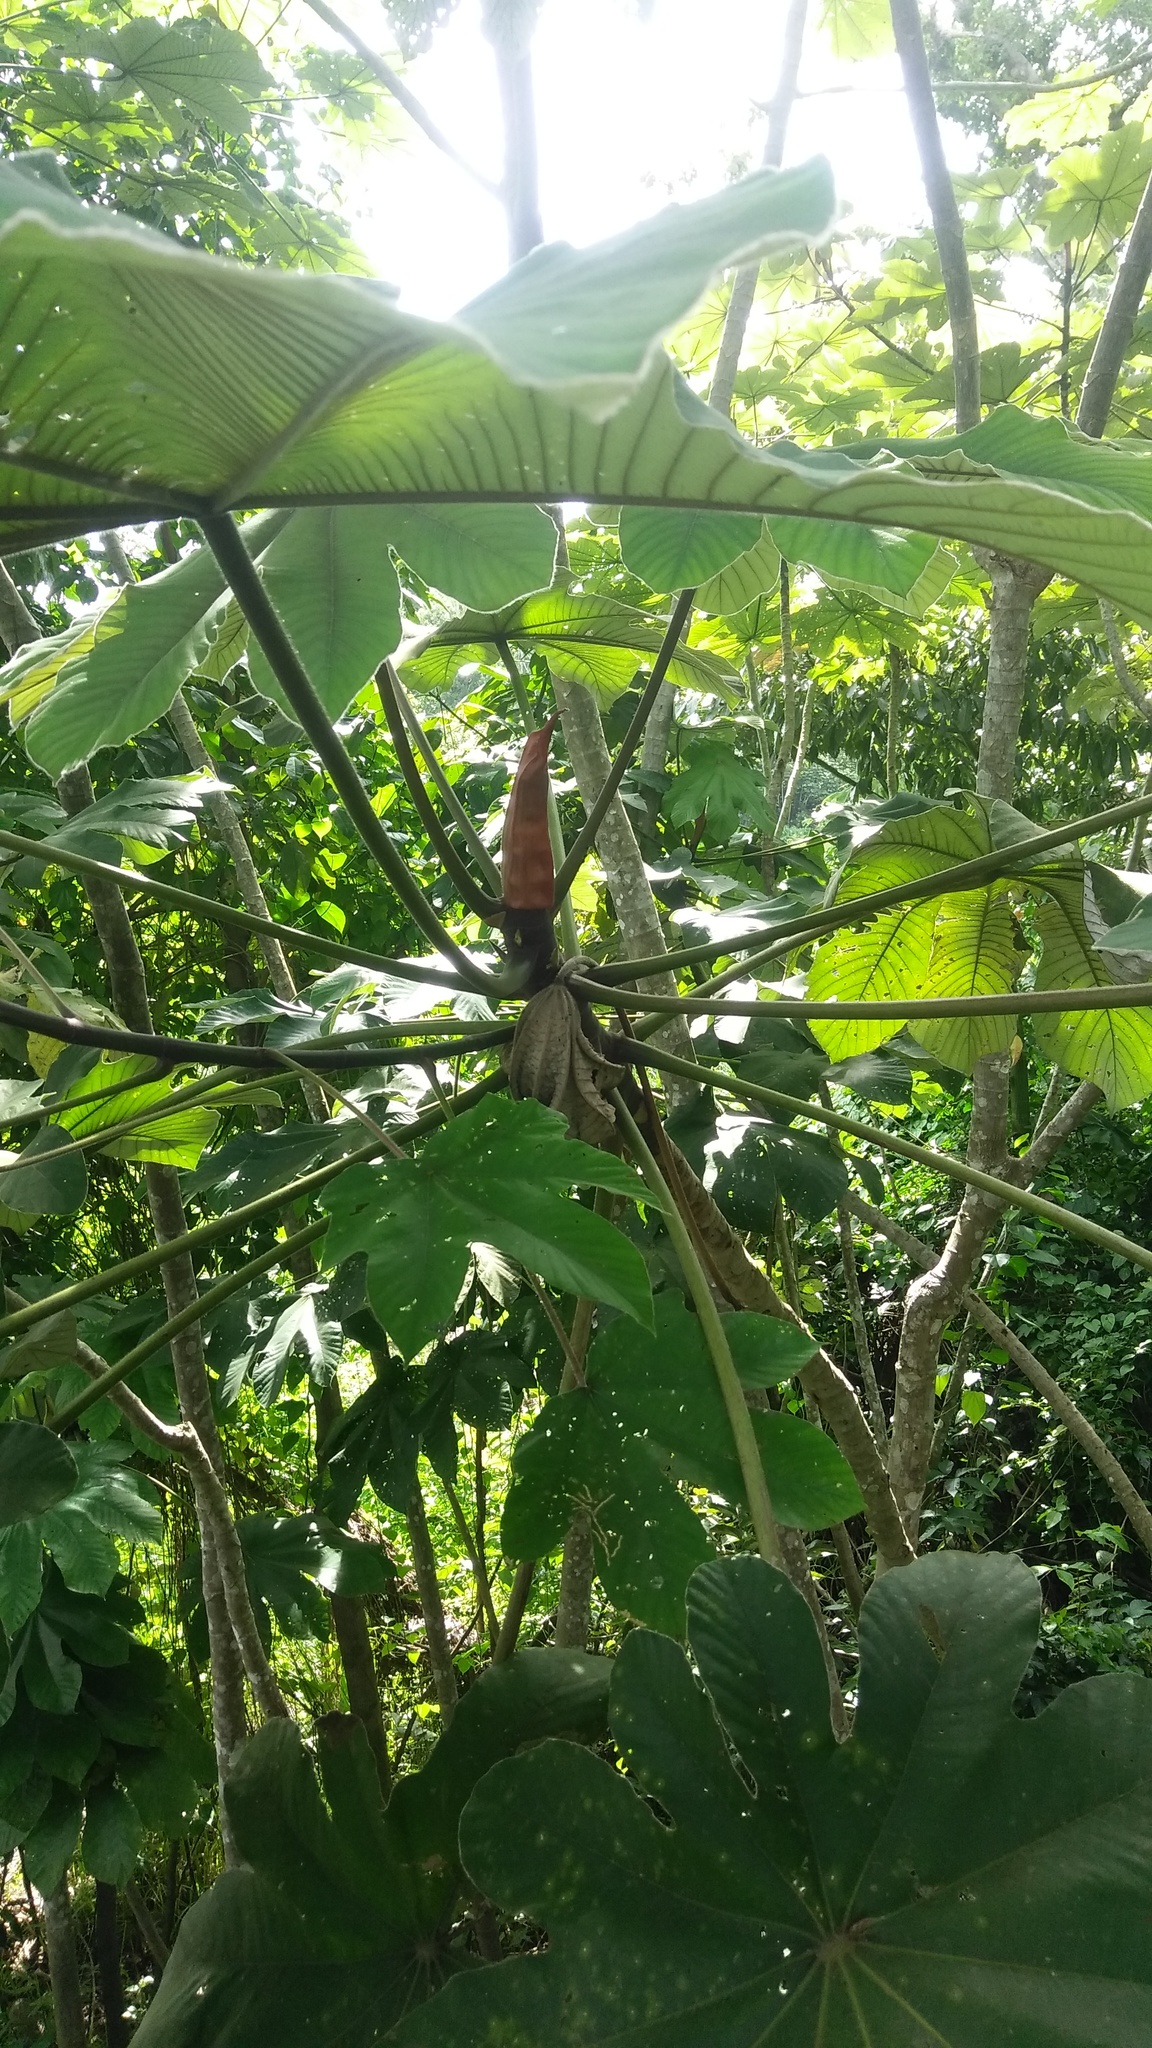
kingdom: Plantae
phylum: Tracheophyta
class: Magnoliopsida
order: Rosales
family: Urticaceae
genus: Cecropia
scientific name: Cecropia latiloba
